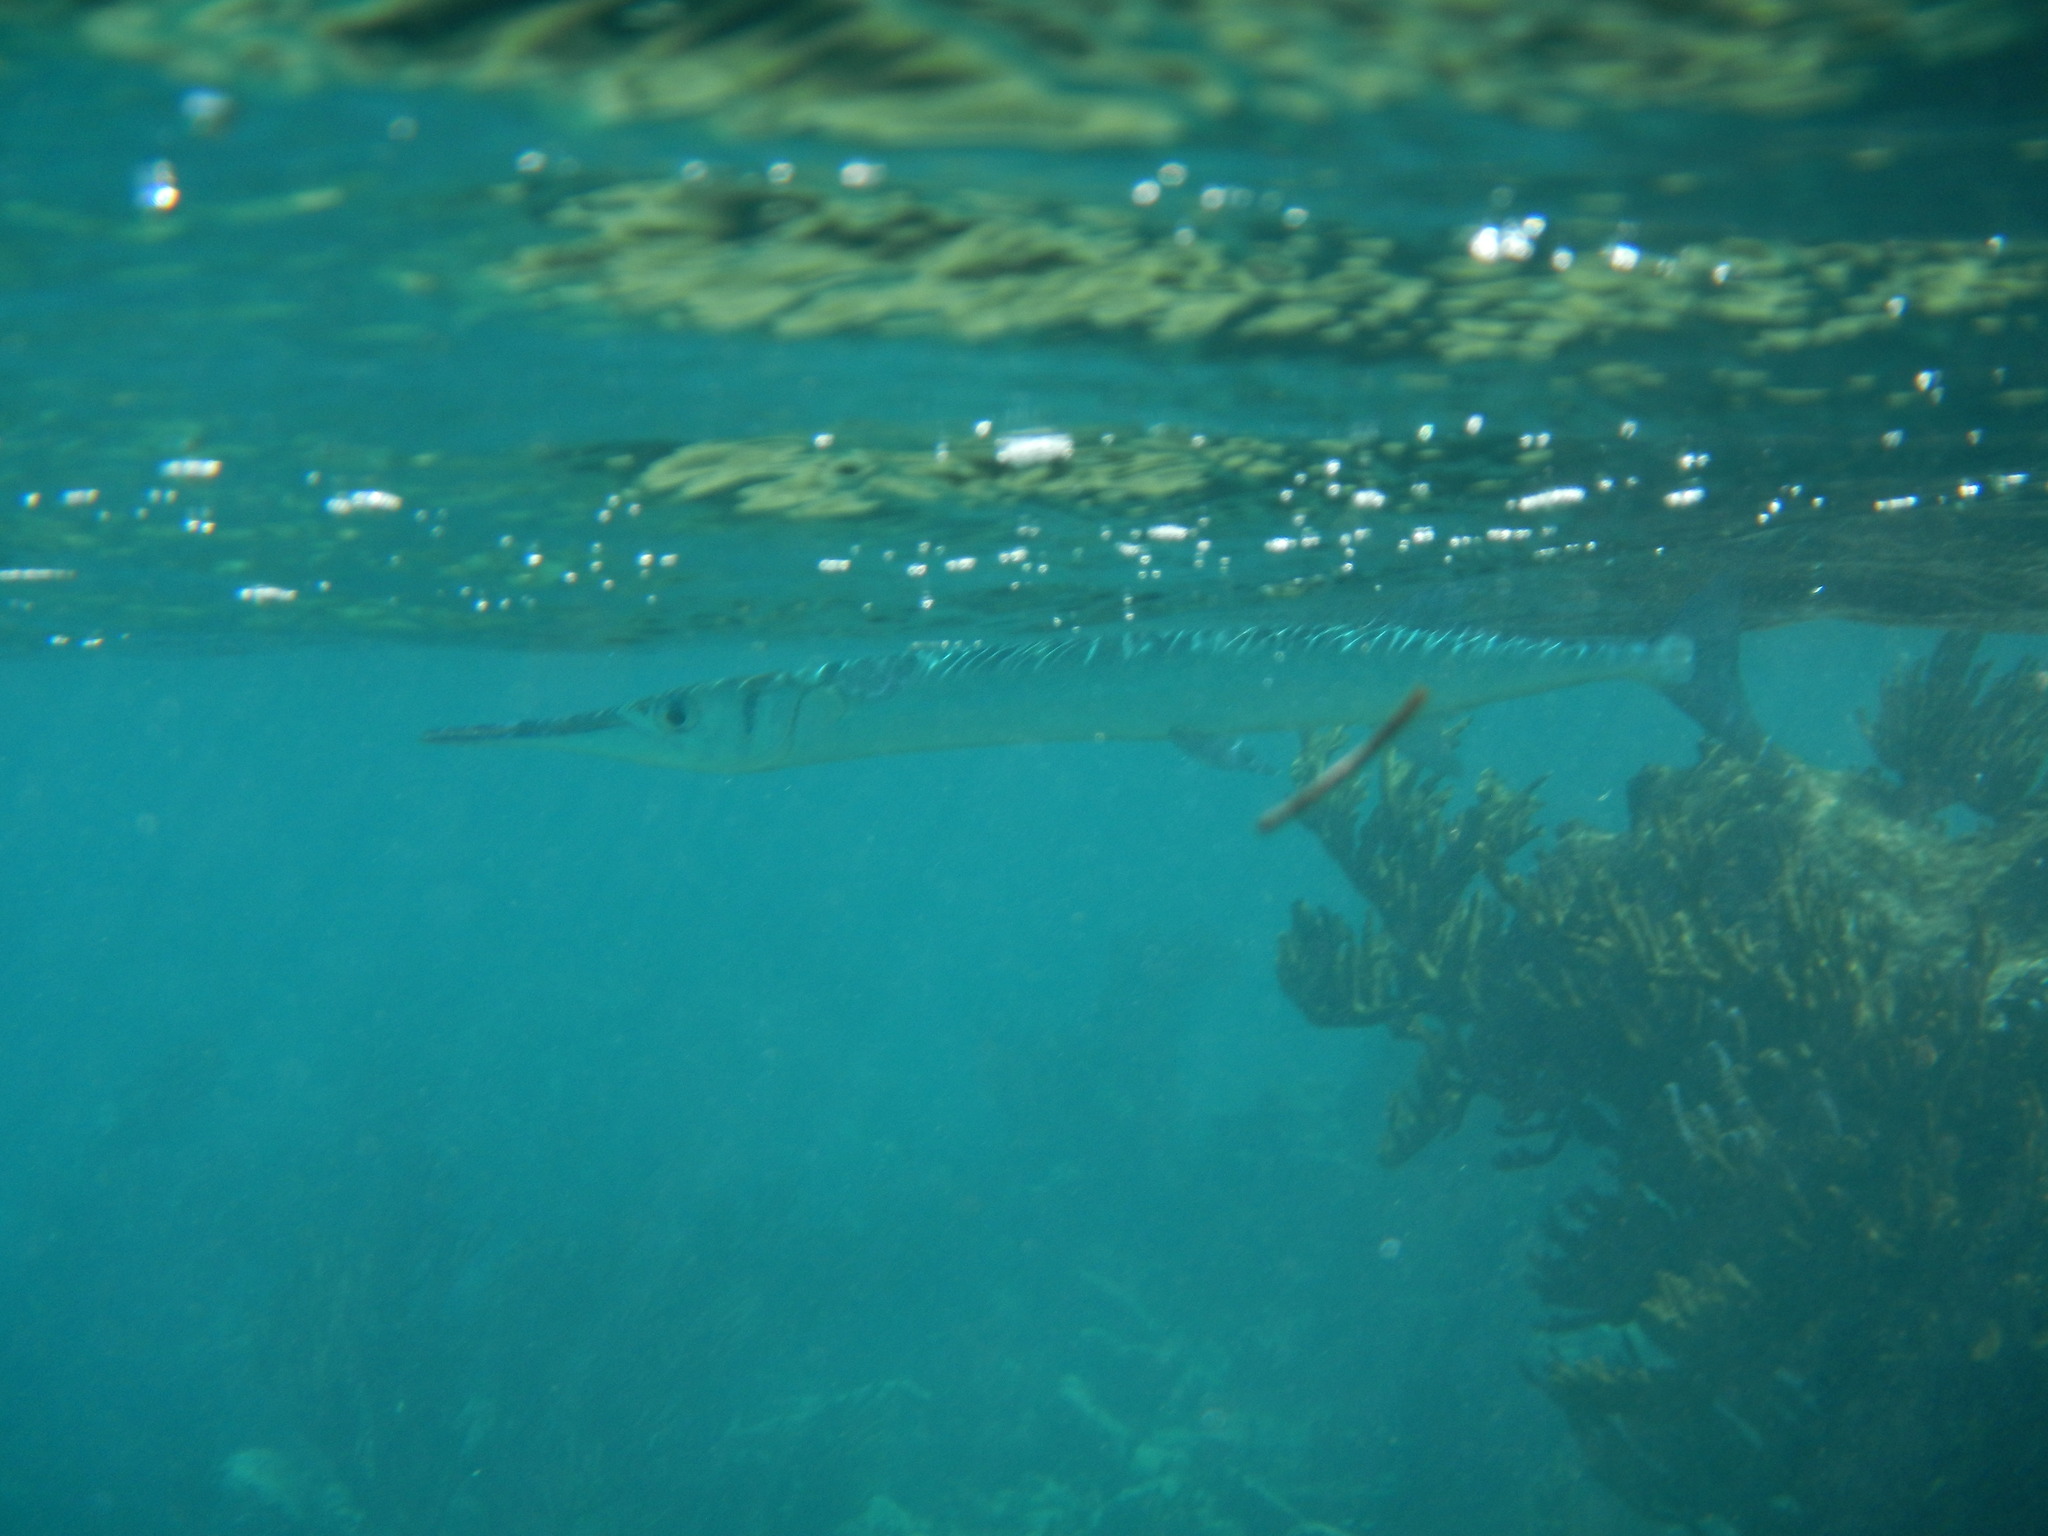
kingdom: Animalia
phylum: Chordata
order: Beloniformes
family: Belonidae
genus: Tylosurus
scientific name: Tylosurus crocodilus
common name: Houndfish
